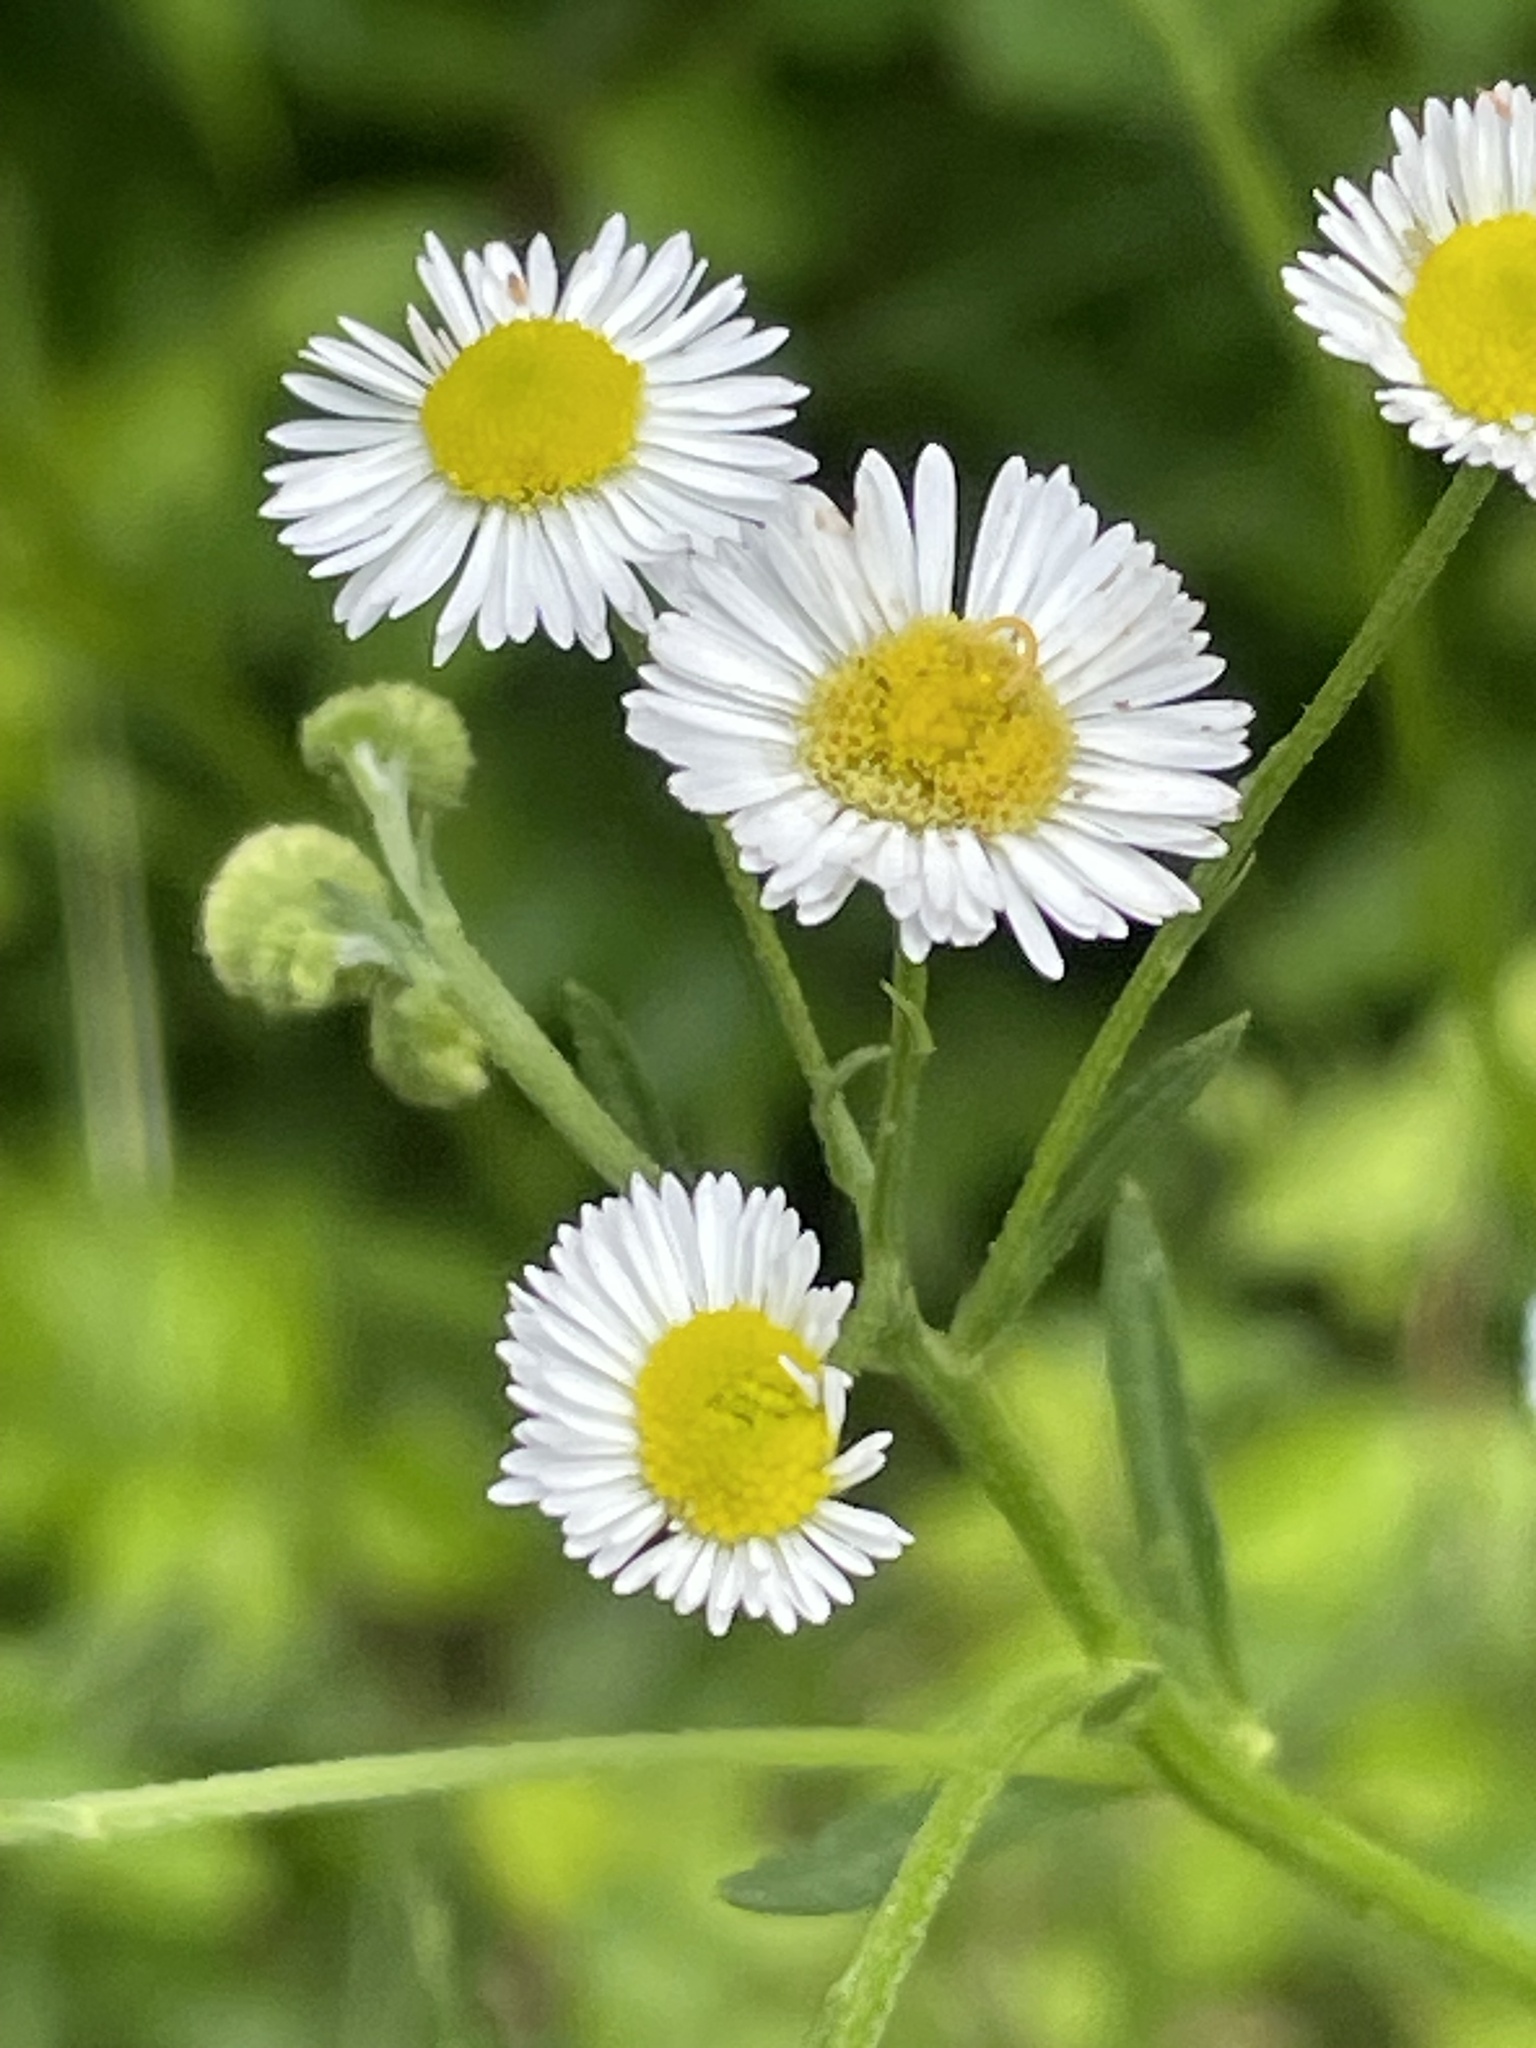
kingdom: Plantae
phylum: Tracheophyta
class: Magnoliopsida
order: Asterales
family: Asteraceae
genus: Erigeron
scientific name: Erigeron strigosus
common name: Common eastern fleabane
